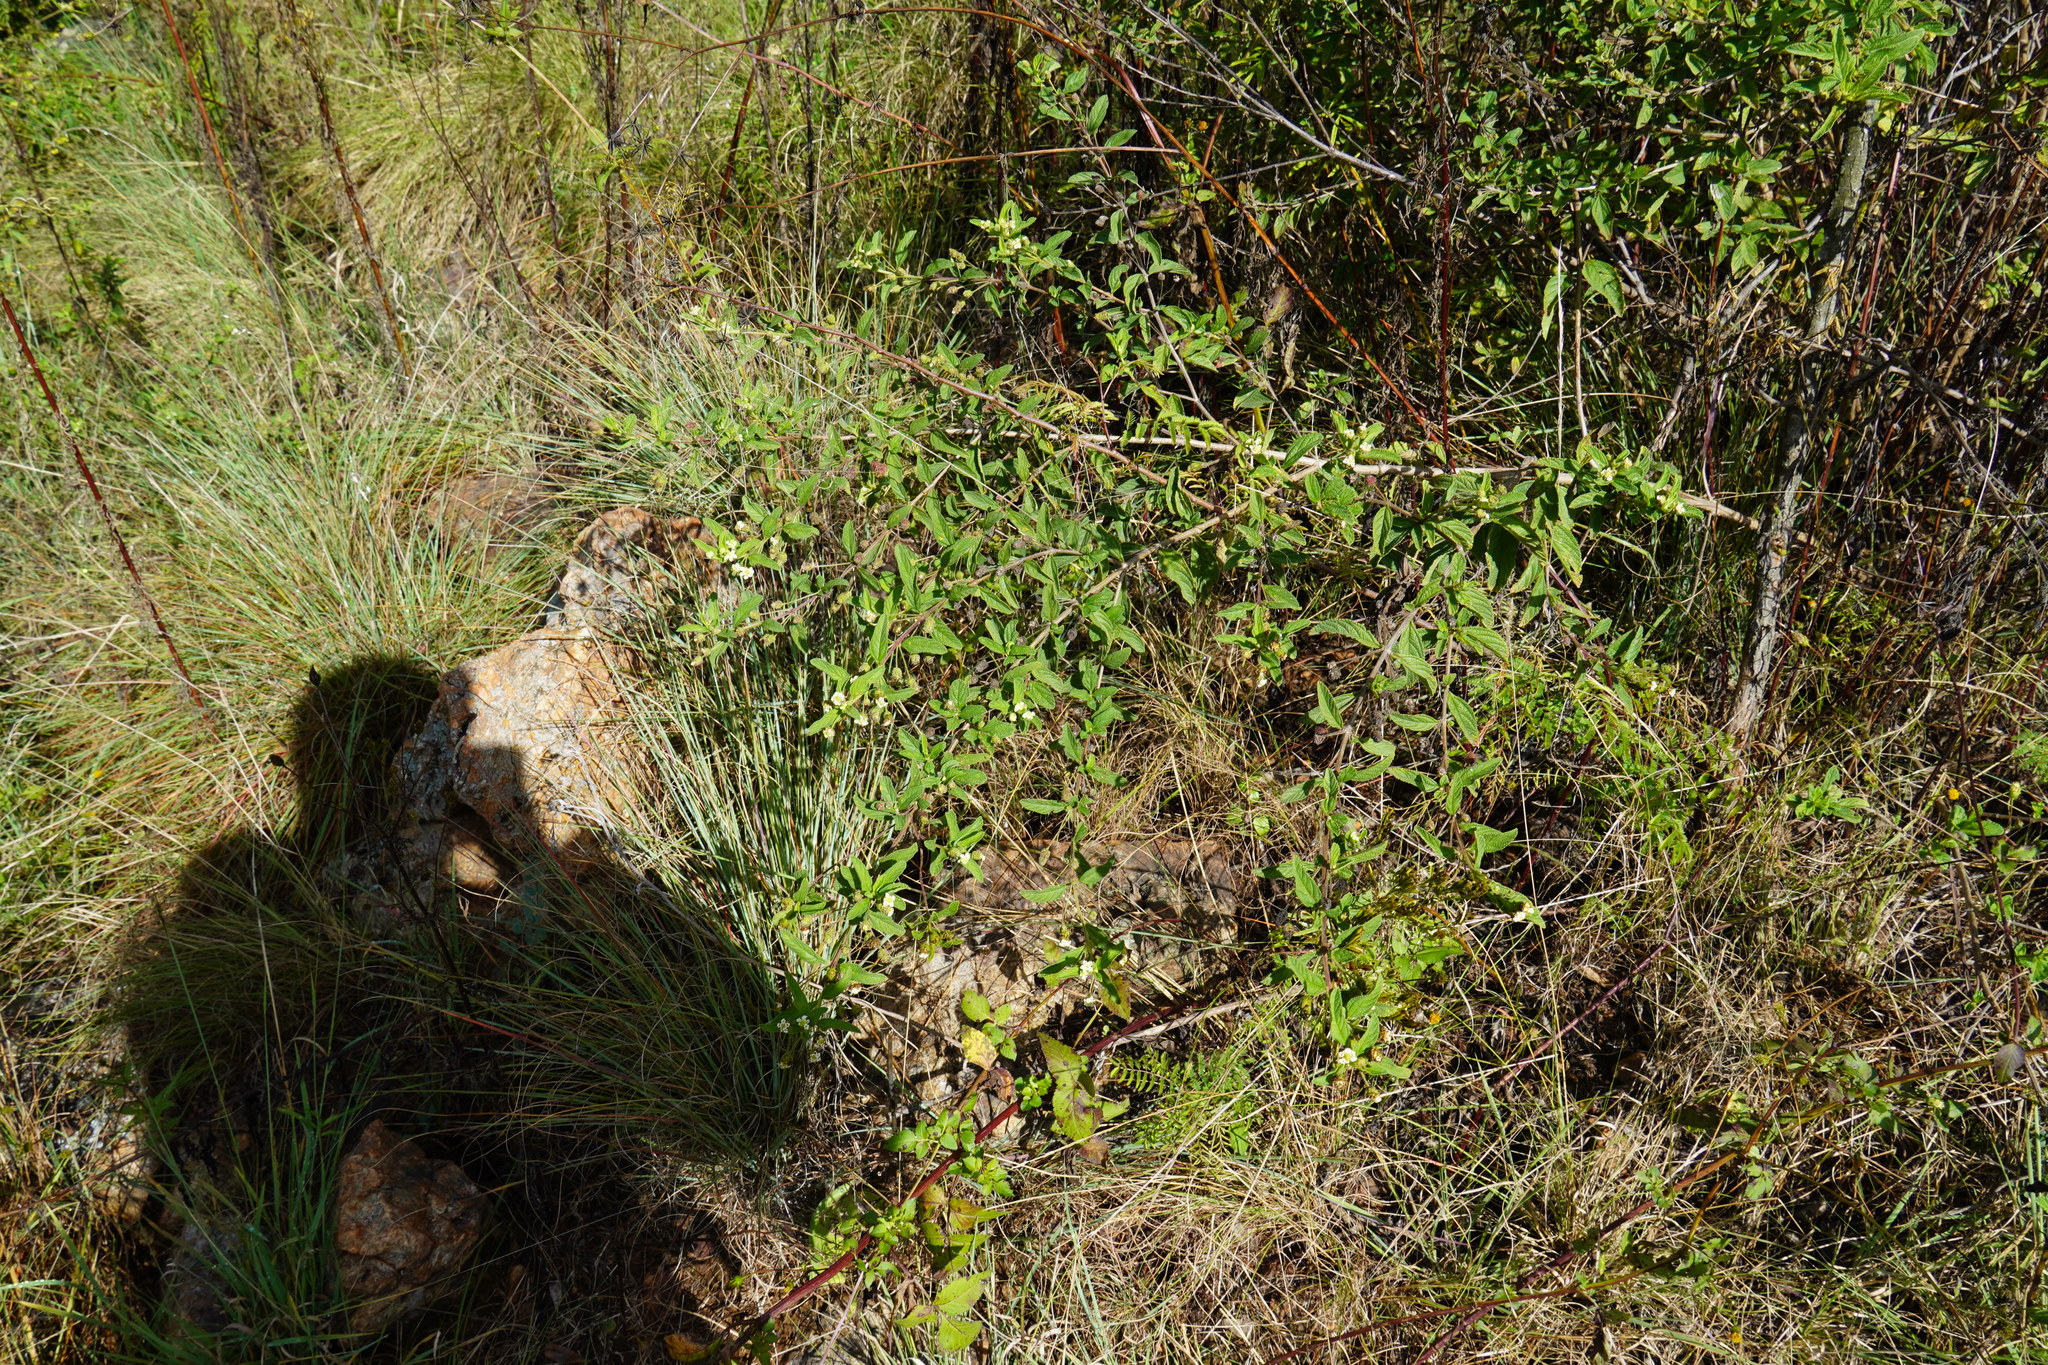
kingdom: Plantae
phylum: Tracheophyta
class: Magnoliopsida
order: Lamiales
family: Verbenaceae
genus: Lippia
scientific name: Lippia javanica
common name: Lemonbush
